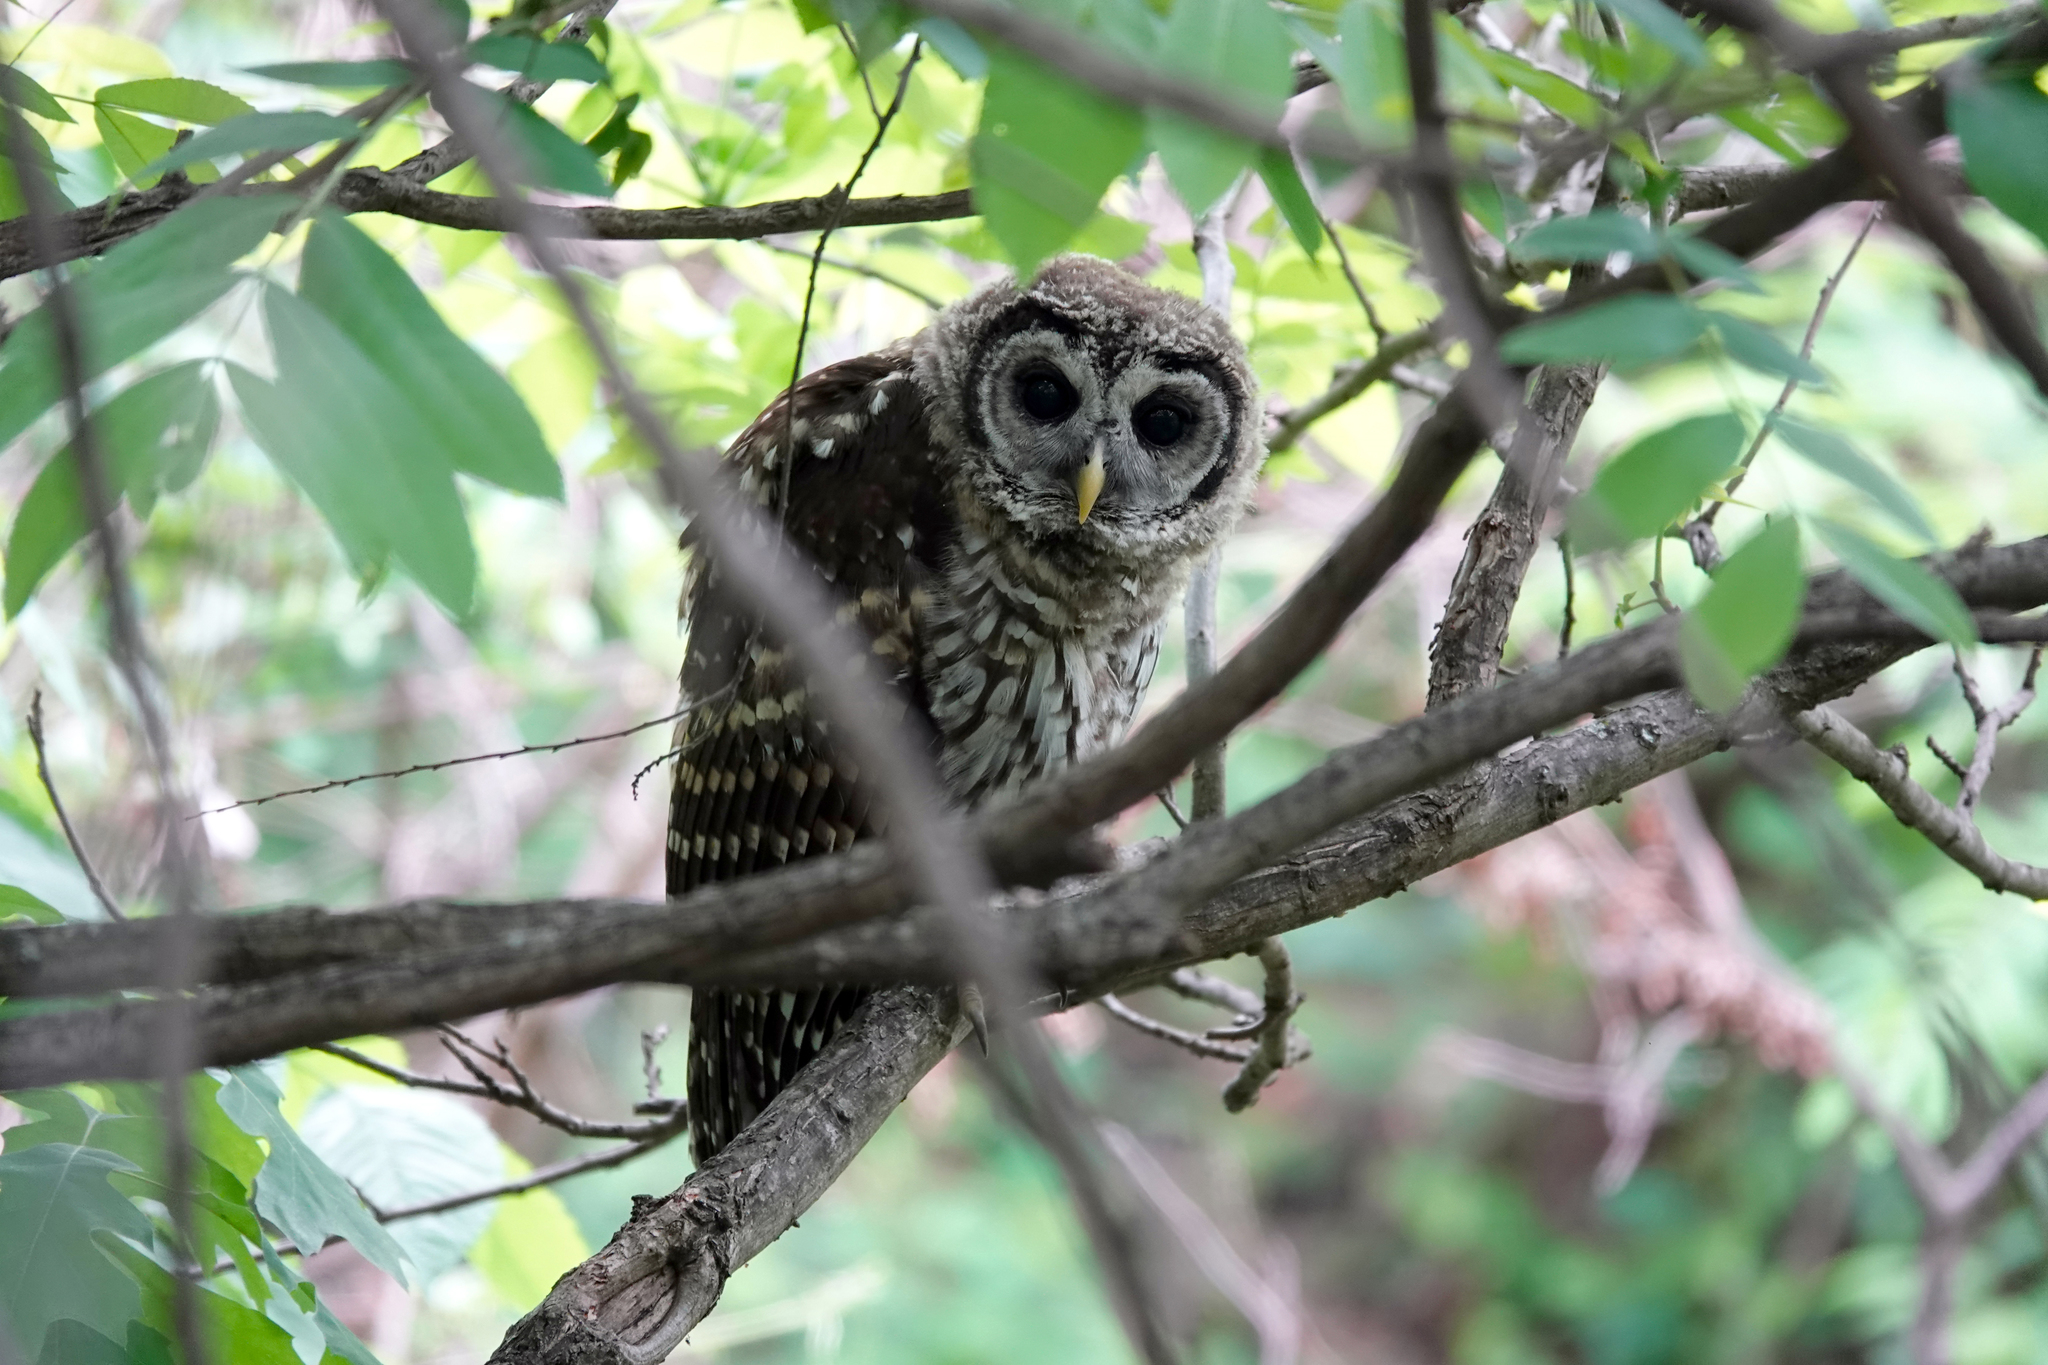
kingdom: Animalia
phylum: Chordata
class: Aves
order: Strigiformes
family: Strigidae
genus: Strix
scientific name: Strix varia
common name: Barred owl
